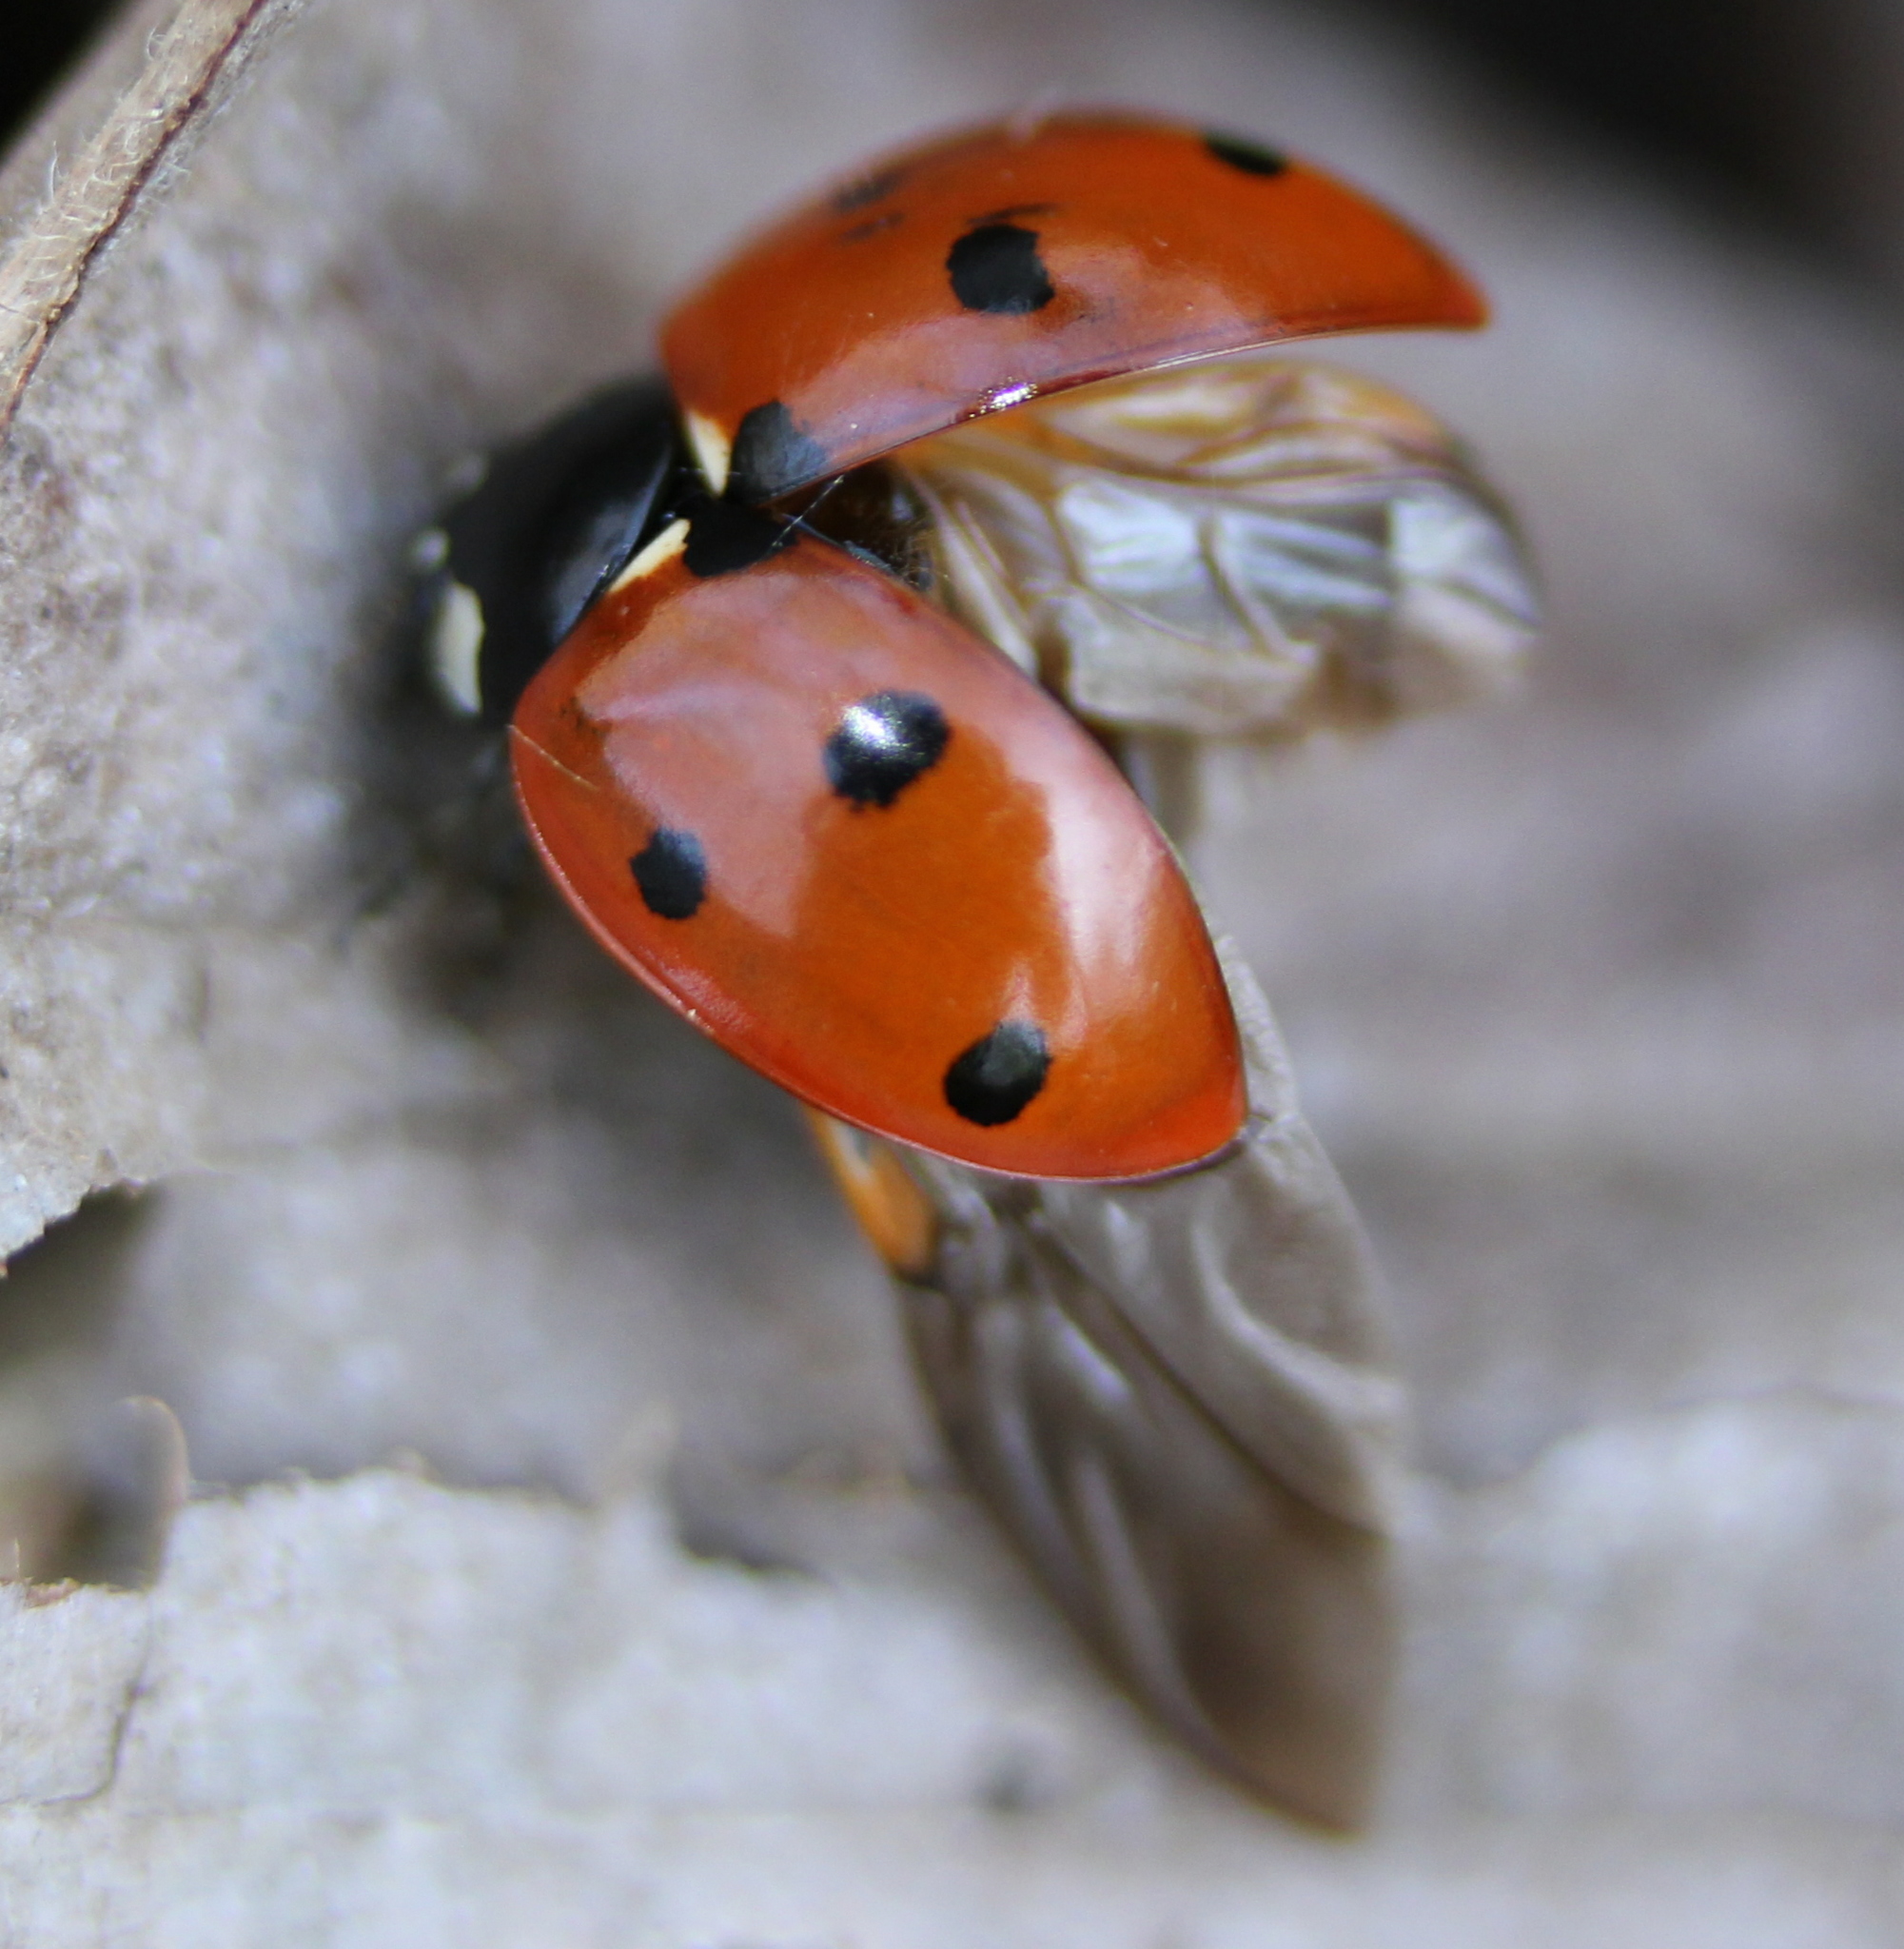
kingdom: Animalia
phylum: Arthropoda
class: Insecta
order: Coleoptera
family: Coccinellidae
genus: Coccinella
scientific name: Coccinella septempunctata
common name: Sevenspotted lady beetle
